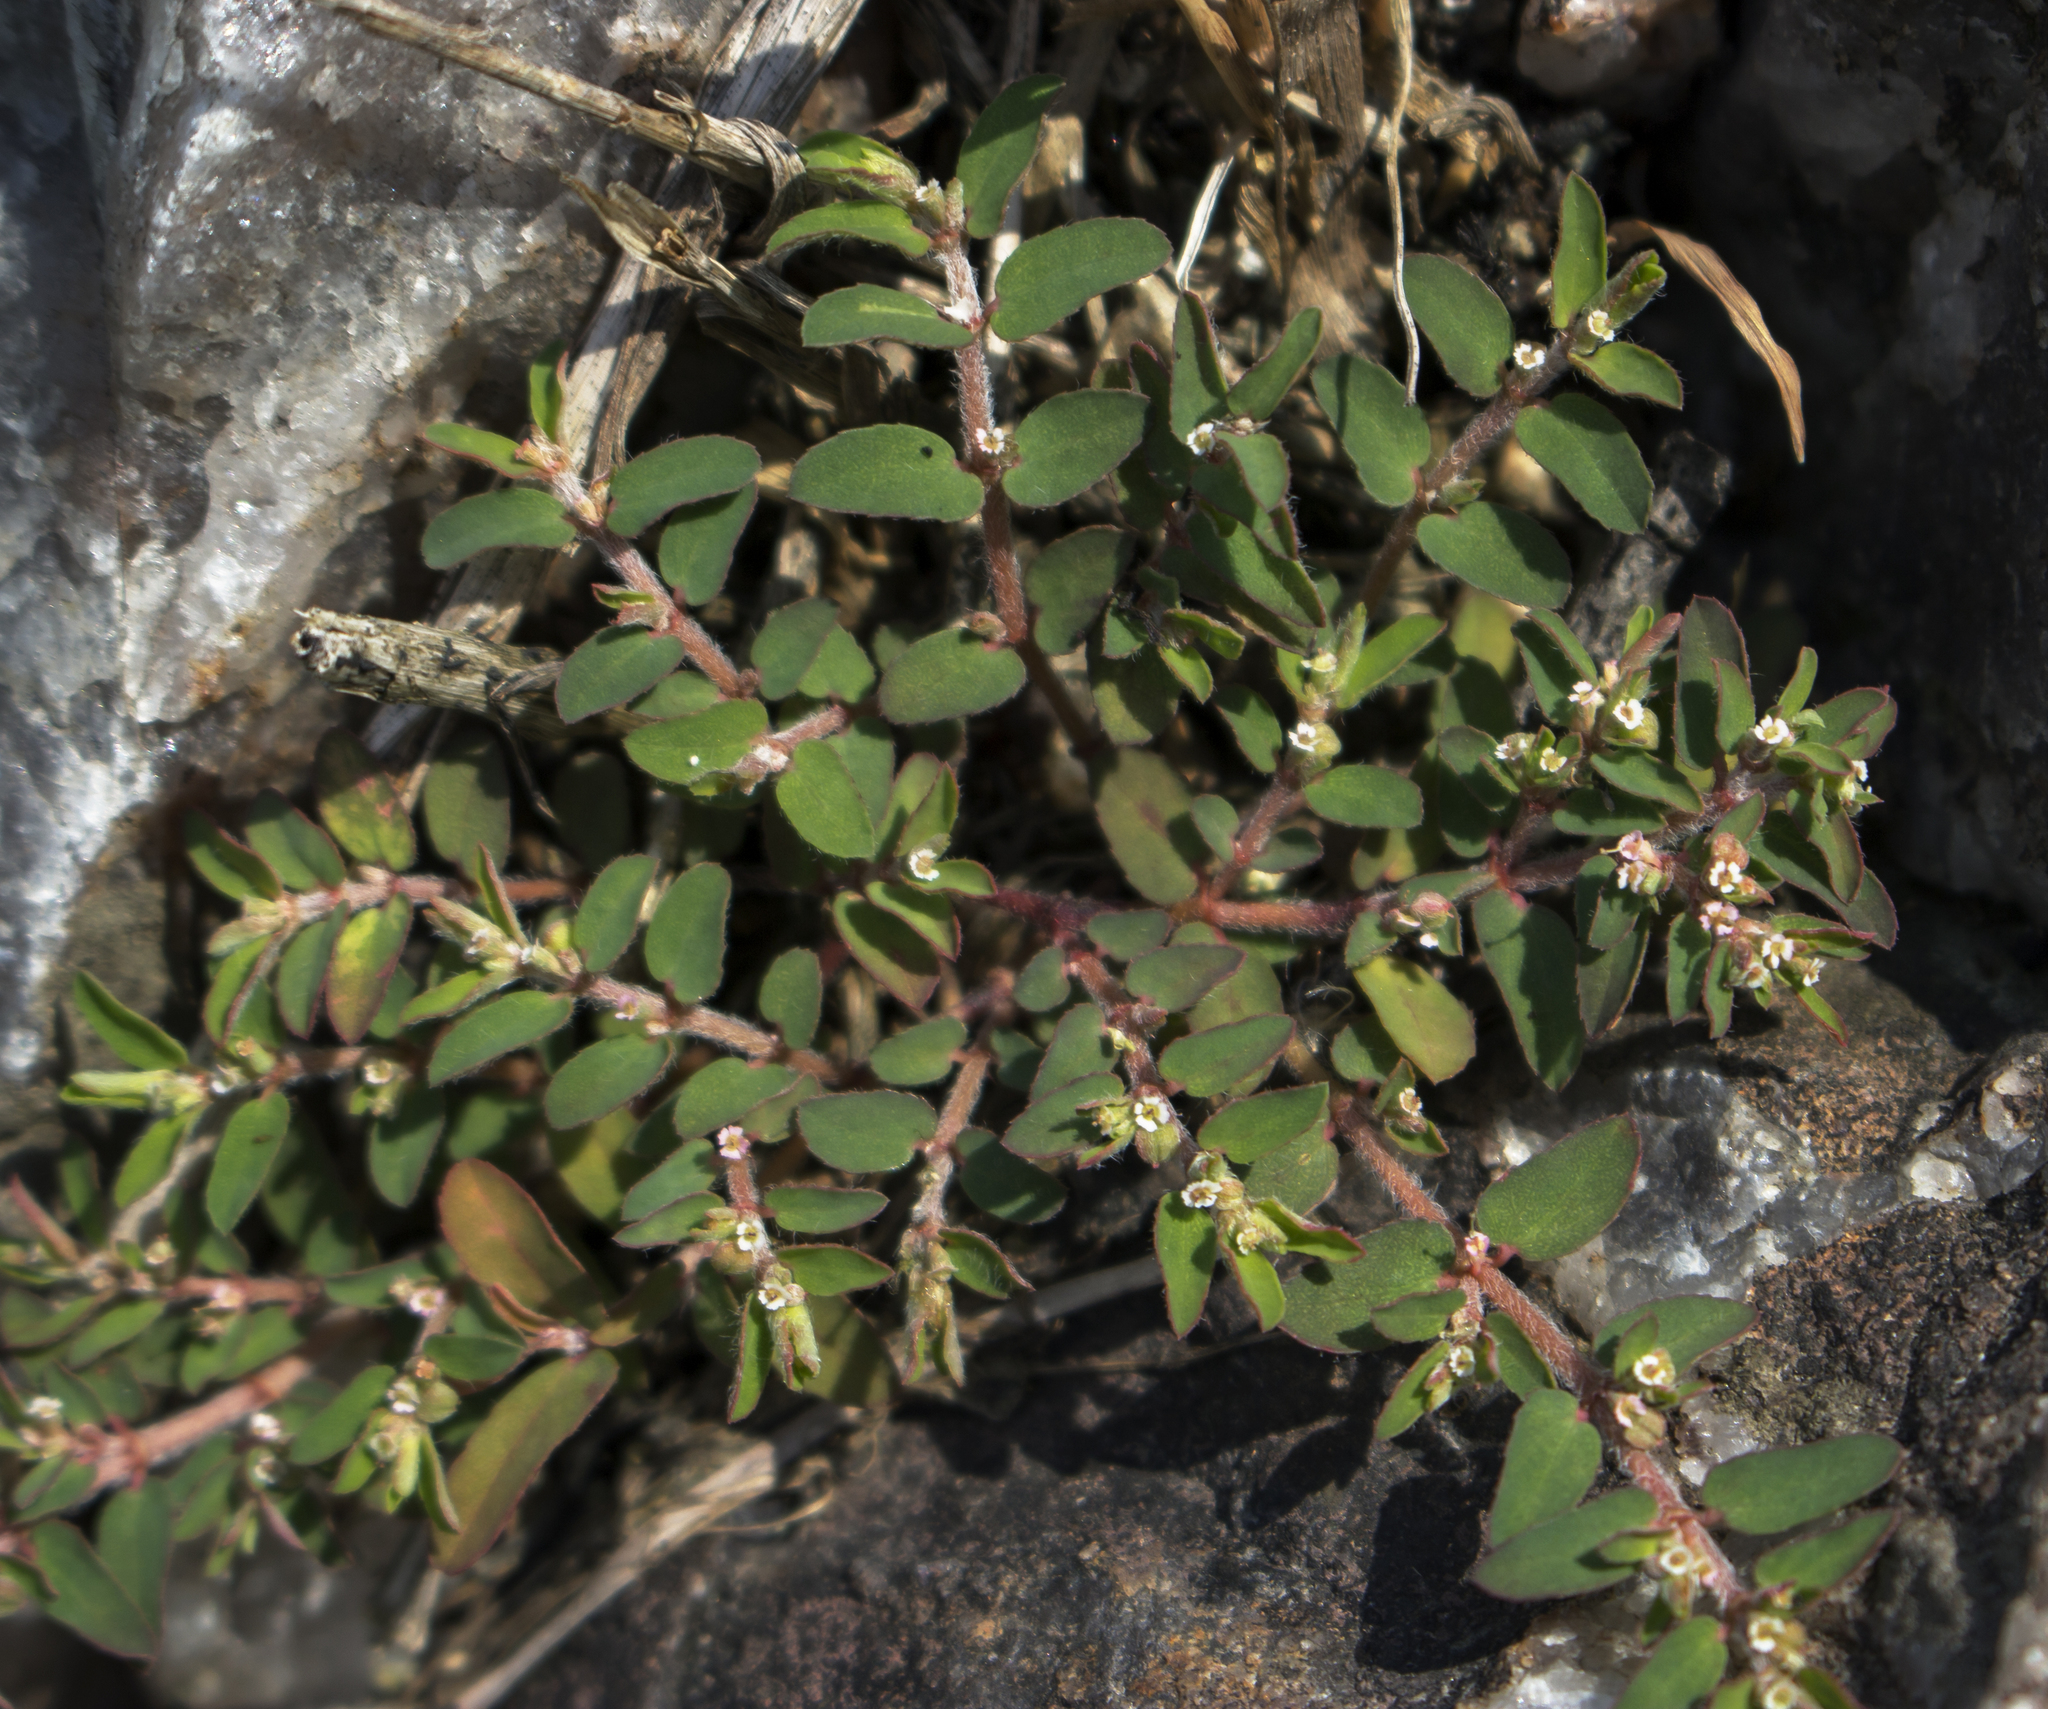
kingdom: Plantae
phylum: Tracheophyta
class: Magnoliopsida
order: Malpighiales
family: Euphorbiaceae
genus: Euphorbia
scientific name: Euphorbia maculata
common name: Spotted spurge
